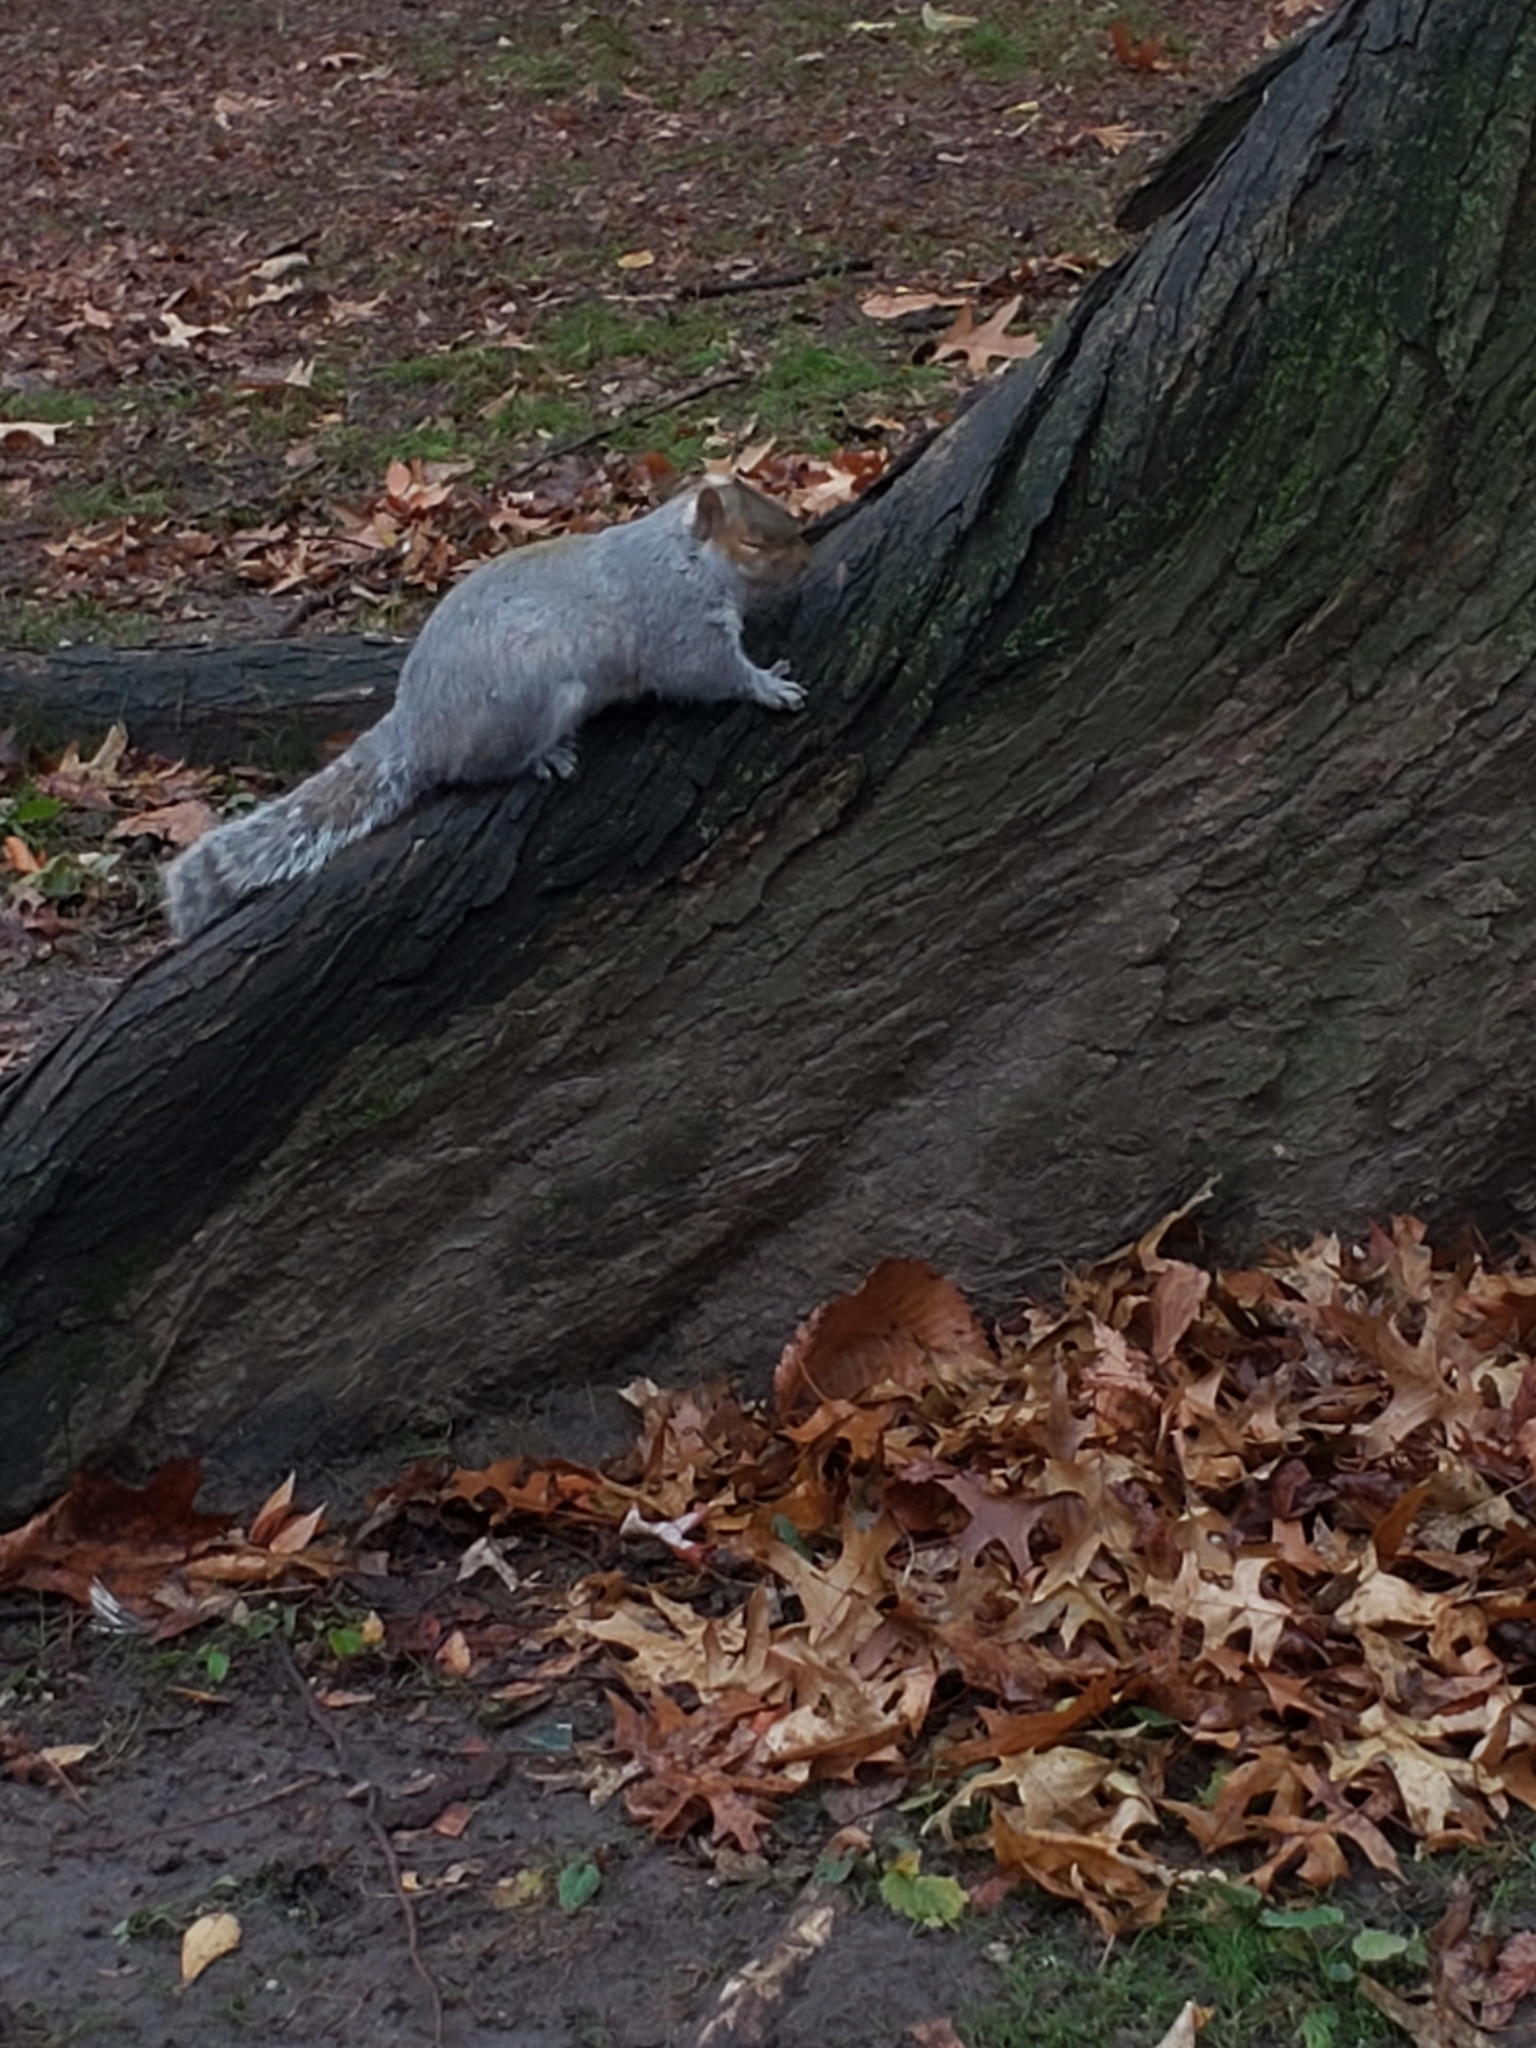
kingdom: Animalia
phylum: Chordata
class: Mammalia
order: Rodentia
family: Sciuridae
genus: Sciurus
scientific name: Sciurus carolinensis
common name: Eastern gray squirrel
